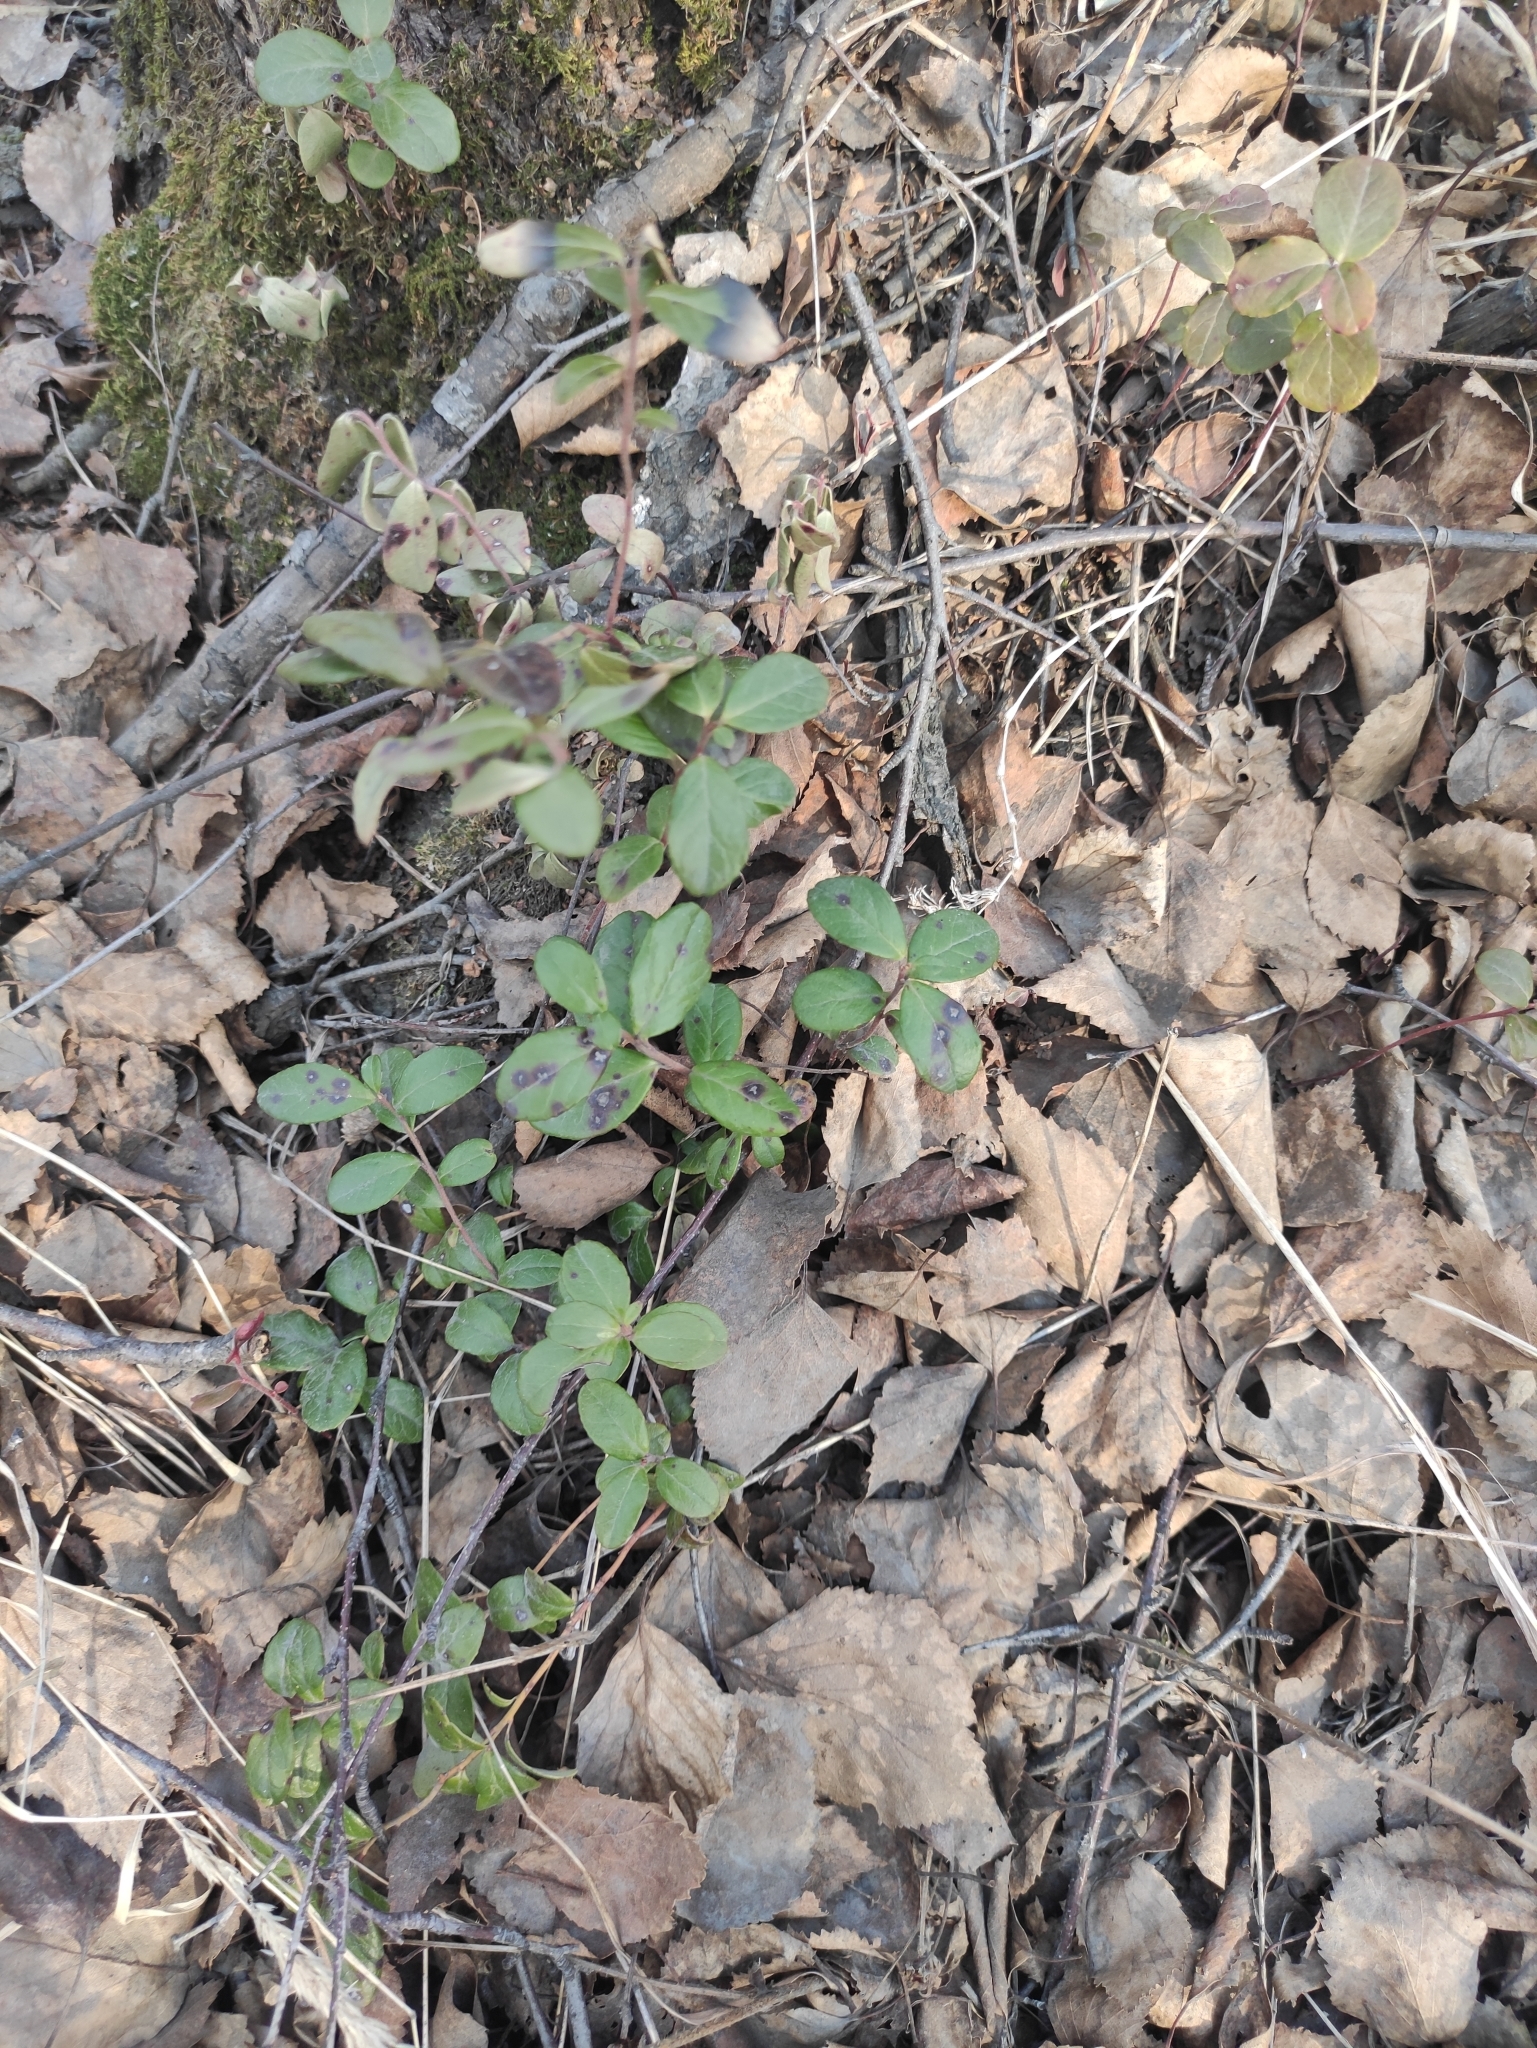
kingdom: Plantae
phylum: Tracheophyta
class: Magnoliopsida
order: Ericales
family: Ericaceae
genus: Vaccinium
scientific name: Vaccinium vitis-idaea
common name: Cowberry
